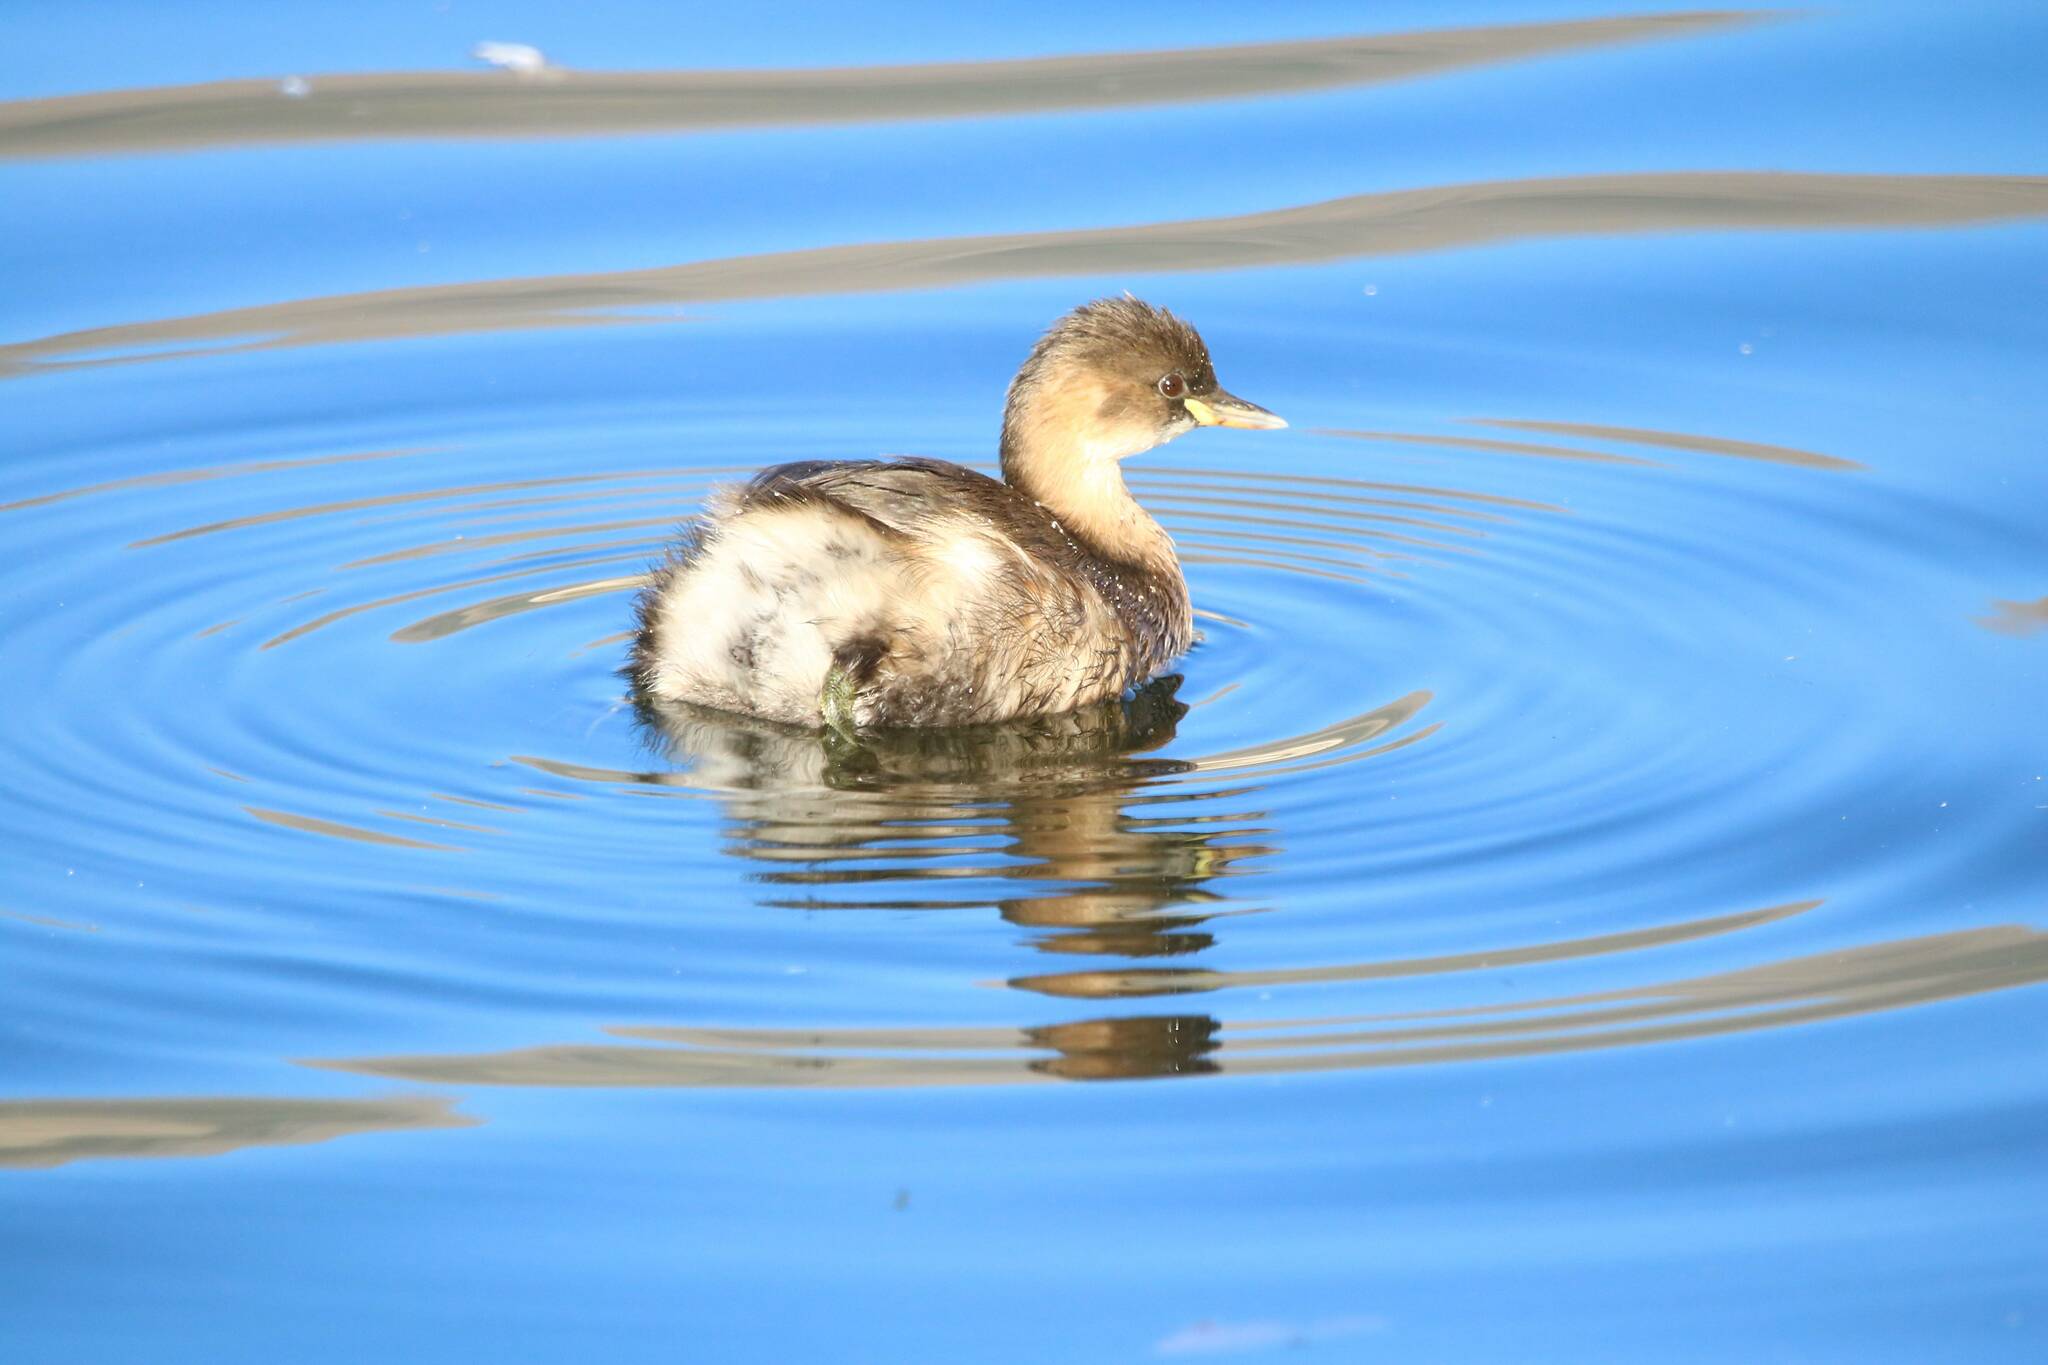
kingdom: Animalia
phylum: Chordata
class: Aves
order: Podicipediformes
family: Podicipedidae
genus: Tachybaptus
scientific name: Tachybaptus ruficollis
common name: Little grebe
